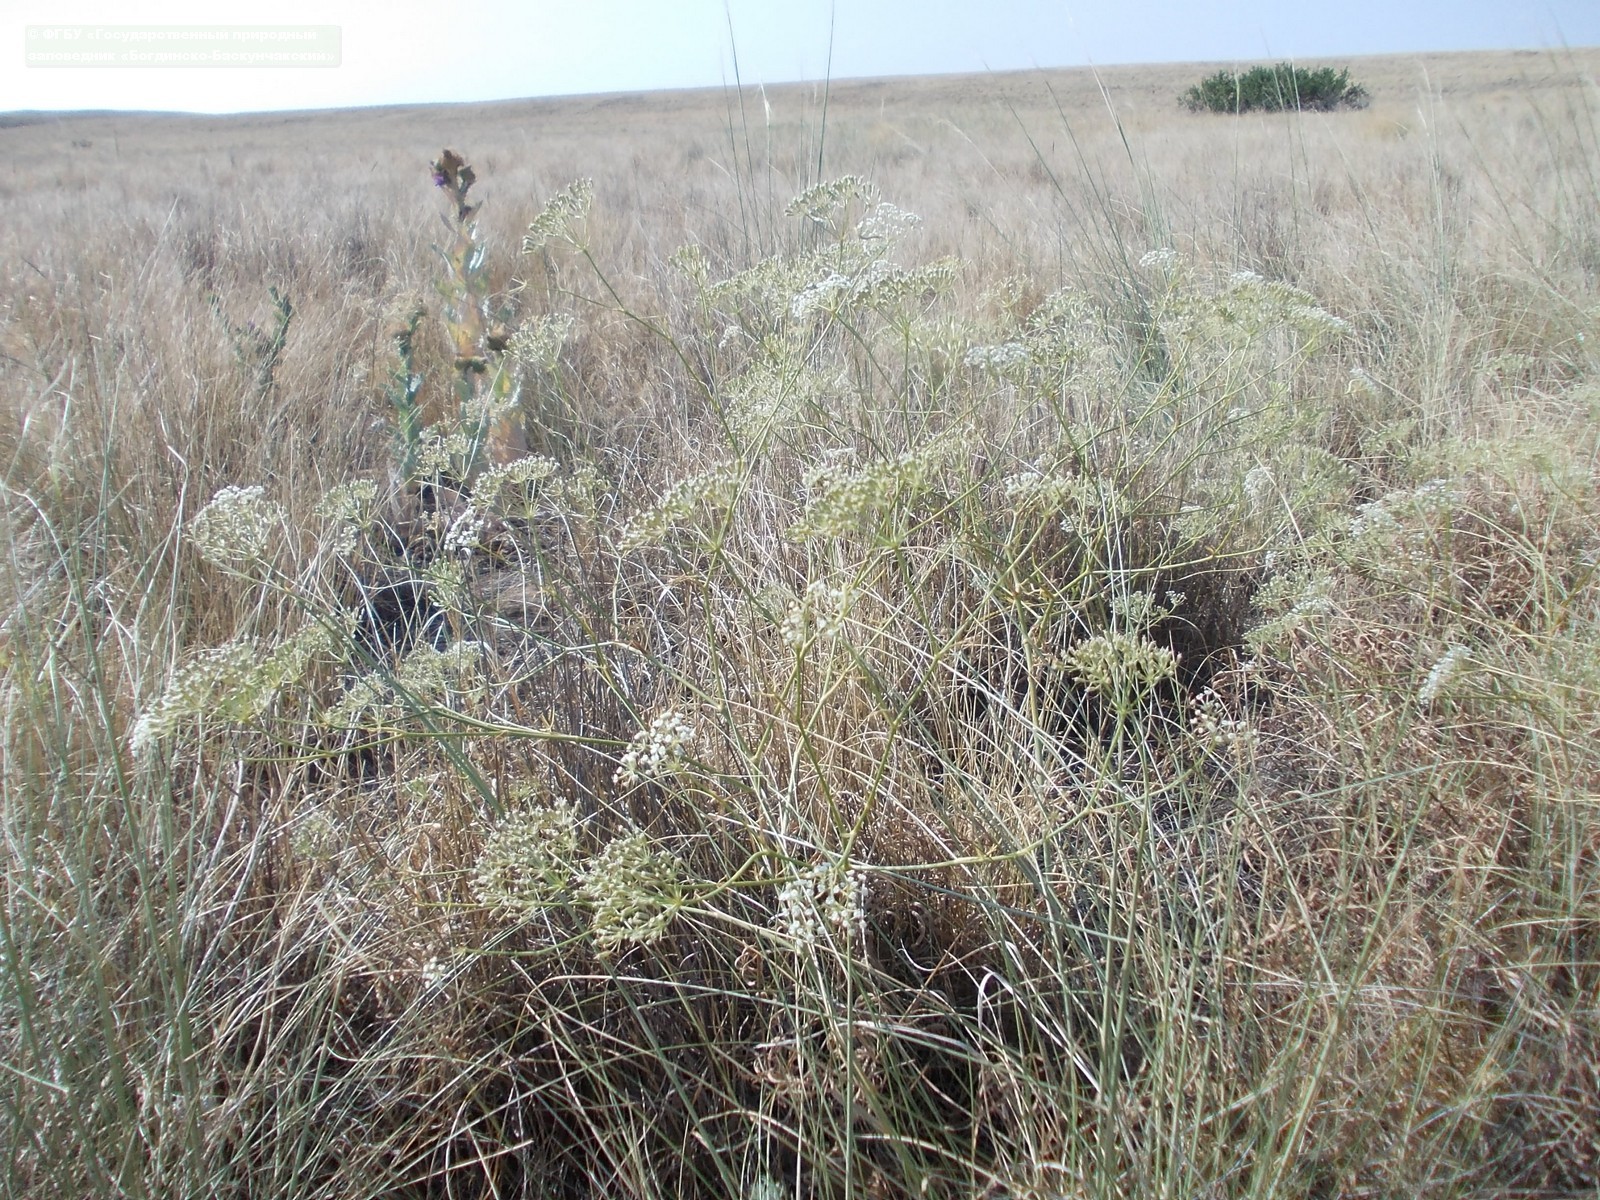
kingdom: Plantae
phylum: Tracheophyta
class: Magnoliopsida
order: Apiales
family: Apiaceae
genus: Falcaria
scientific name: Falcaria vulgaris
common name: Longleaf
